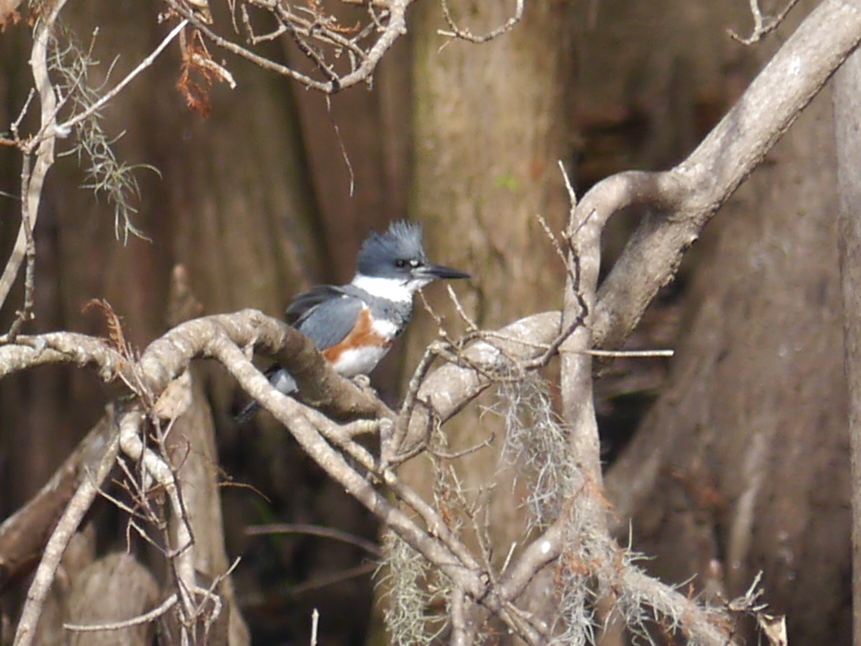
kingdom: Animalia
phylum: Chordata
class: Aves
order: Coraciiformes
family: Alcedinidae
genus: Megaceryle
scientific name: Megaceryle alcyon
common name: Belted kingfisher
